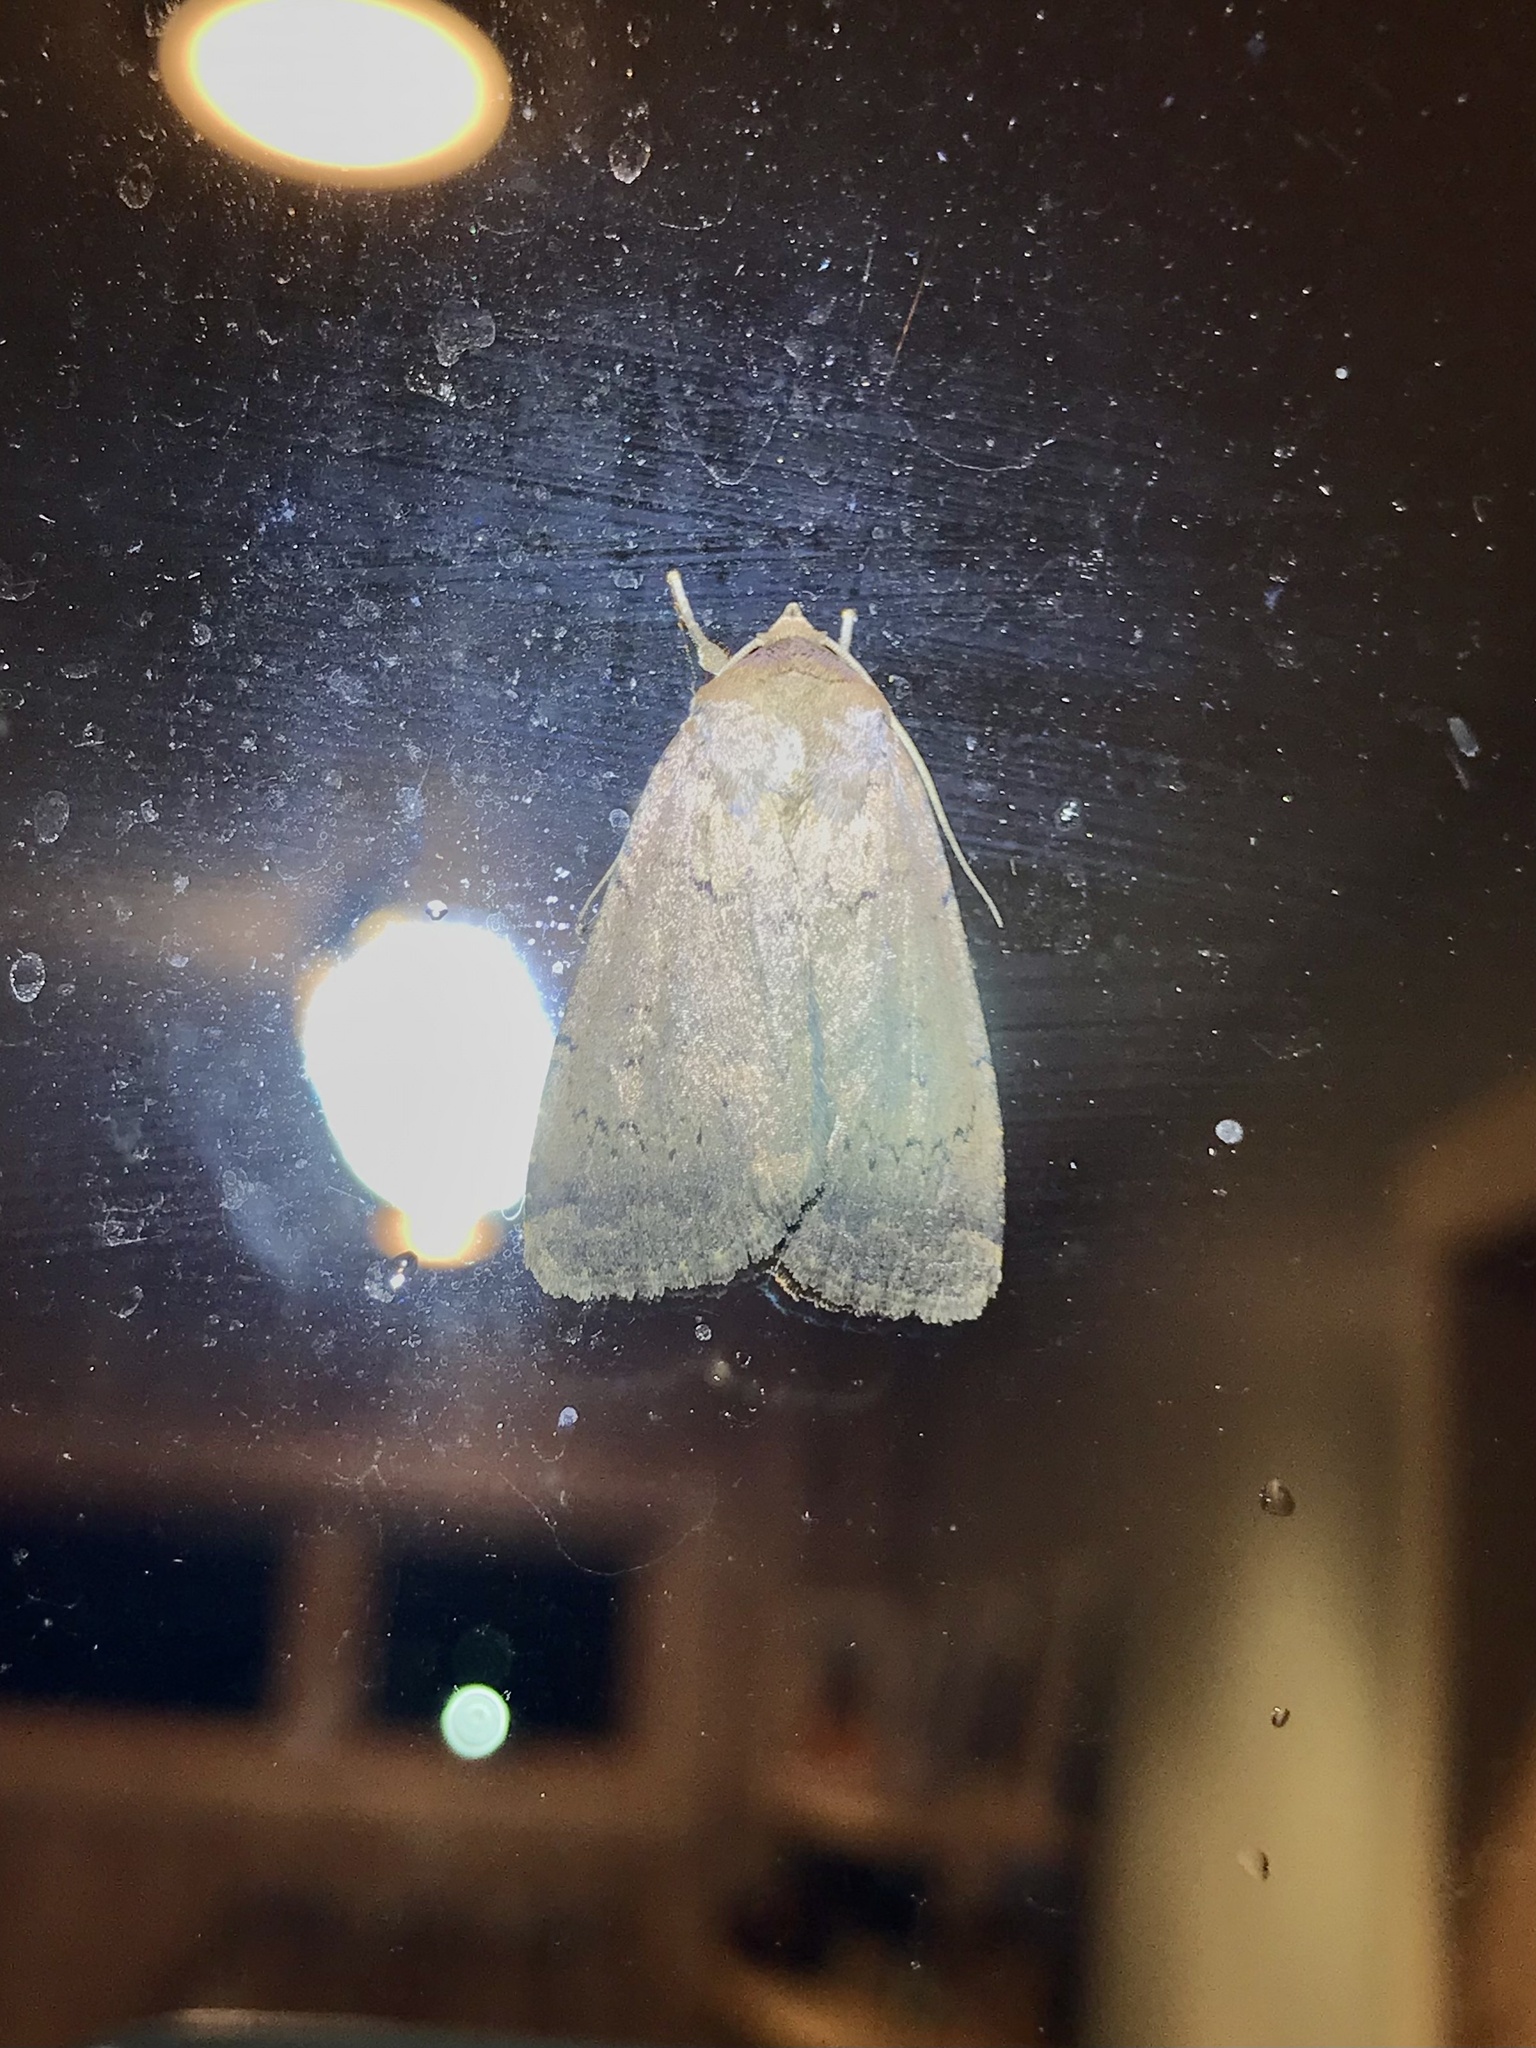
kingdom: Animalia
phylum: Arthropoda
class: Insecta
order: Lepidoptera
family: Noctuidae
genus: Graphiphora
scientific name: Graphiphora augur
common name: Double dart
